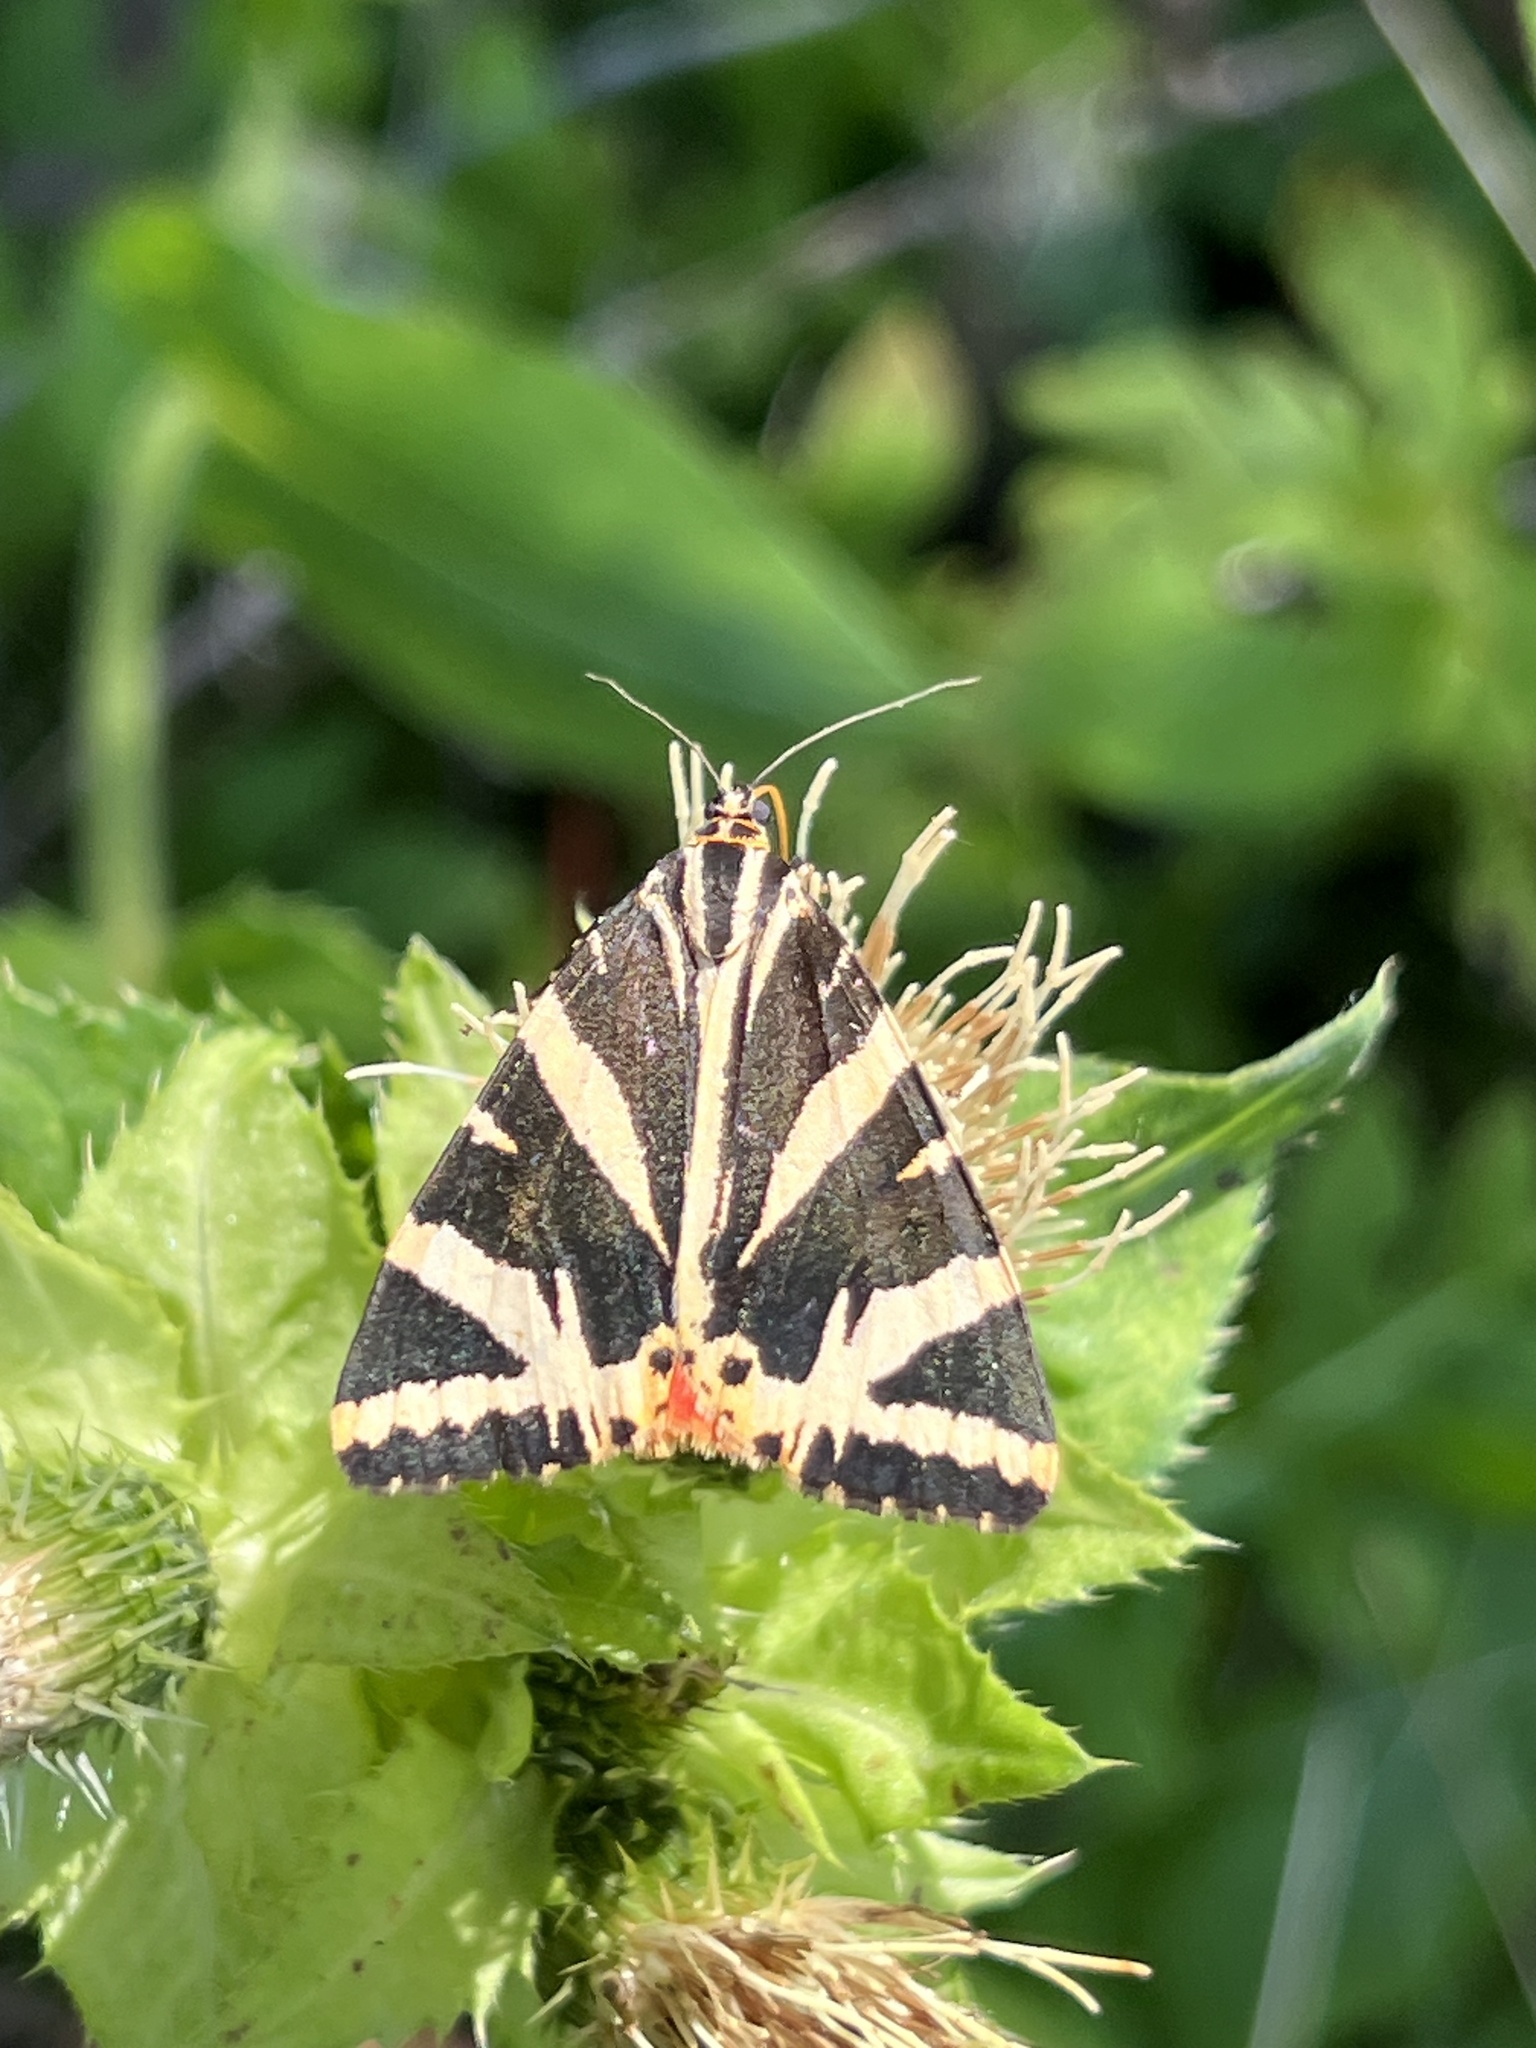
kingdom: Animalia
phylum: Arthropoda
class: Insecta
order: Lepidoptera
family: Erebidae
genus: Euplagia
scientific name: Euplagia quadripunctaria
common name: Jersey tiger
